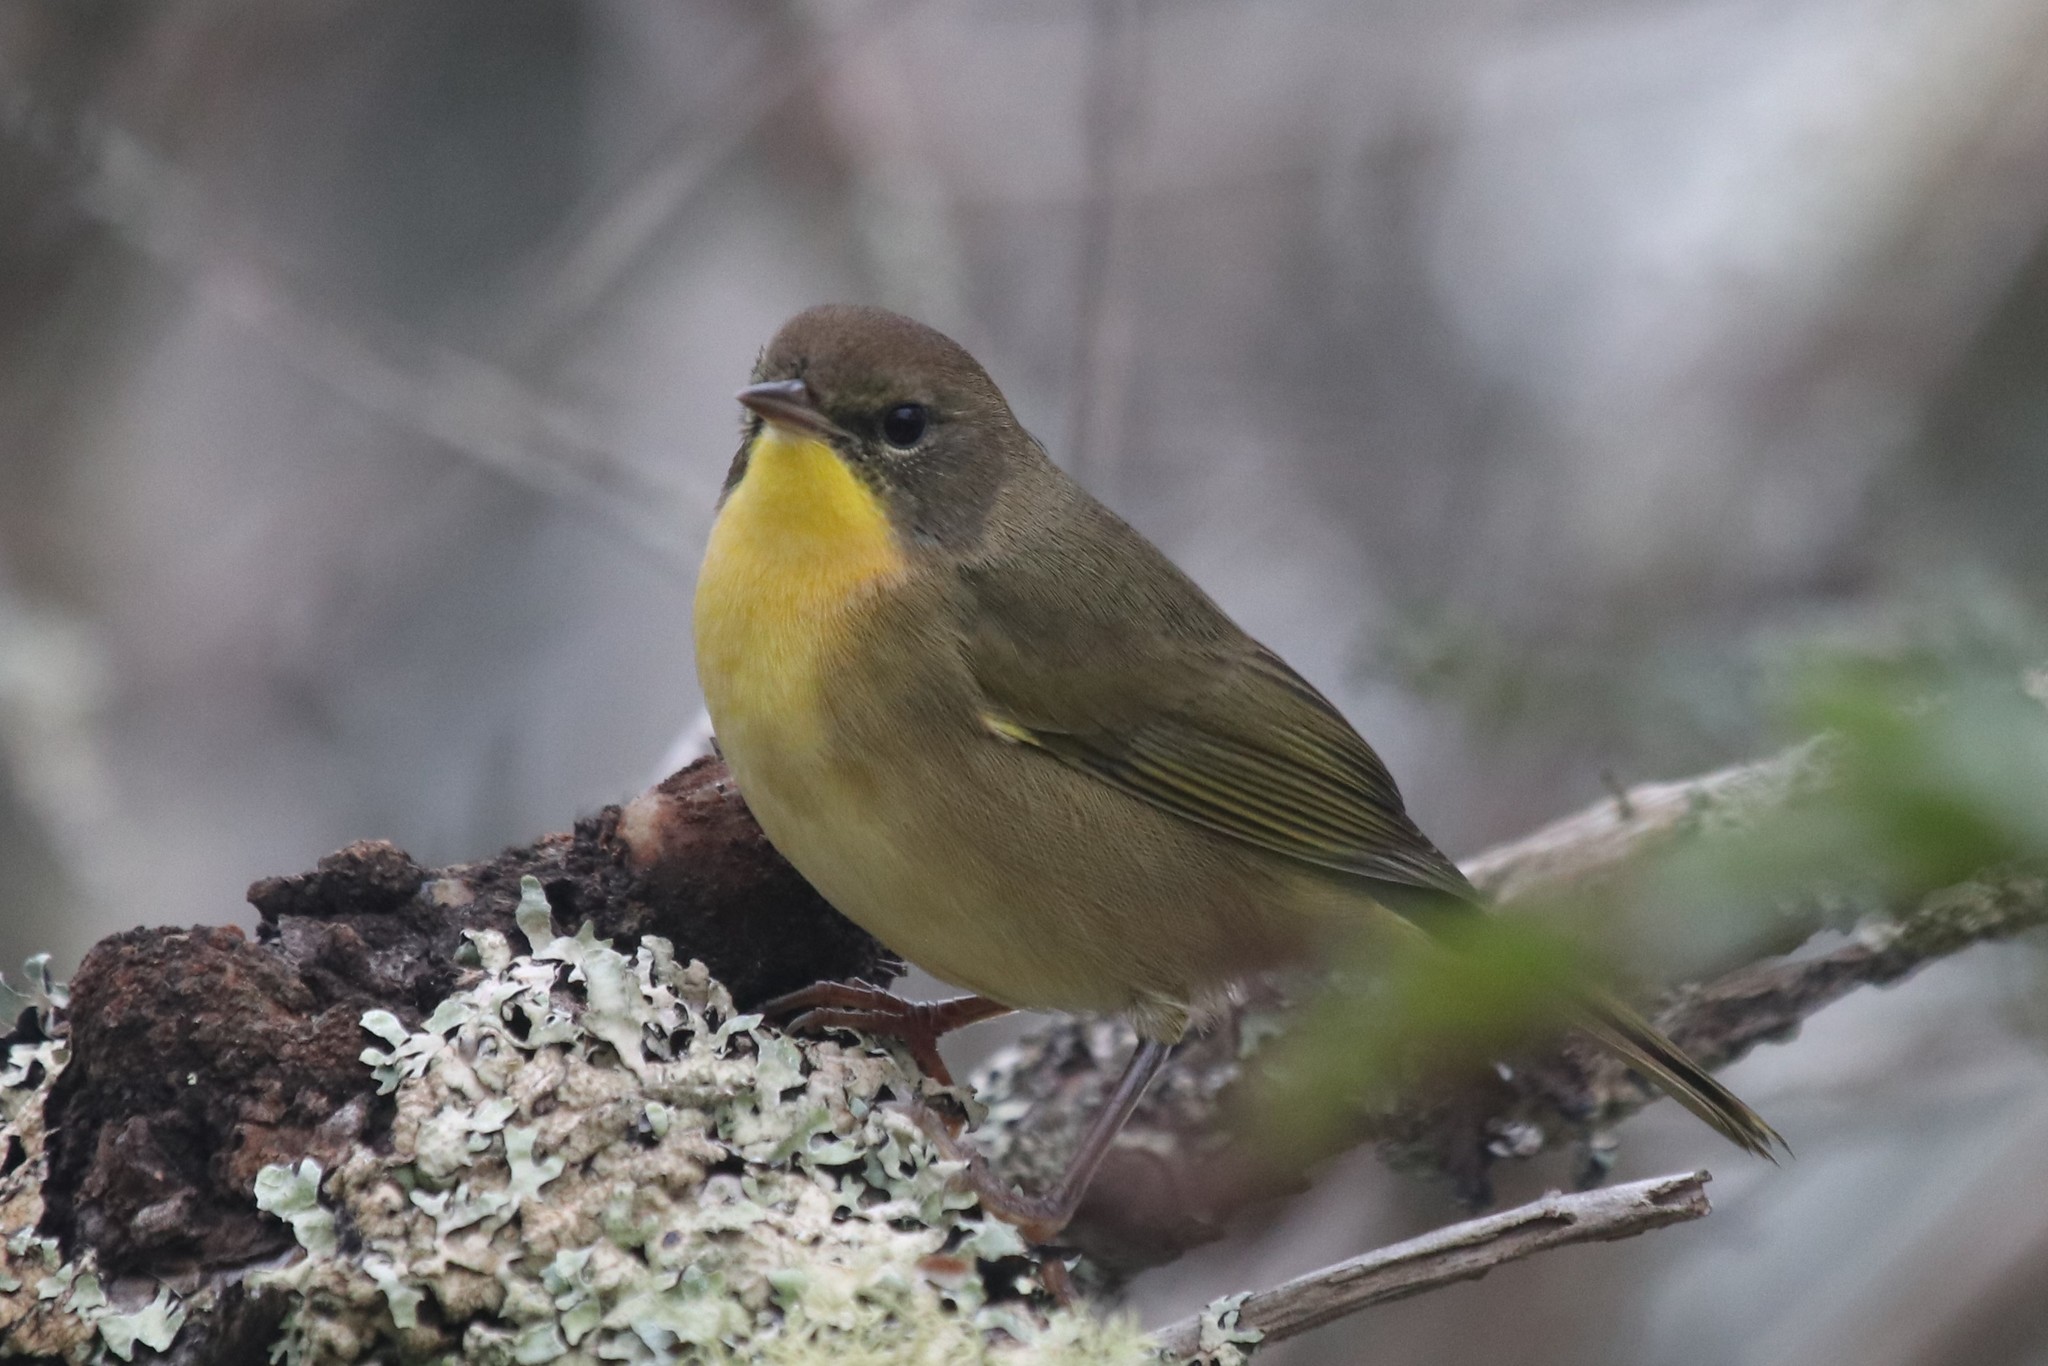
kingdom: Animalia
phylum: Chordata
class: Aves
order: Passeriformes
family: Parulidae
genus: Geothlypis
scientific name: Geothlypis trichas
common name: Common yellowthroat
